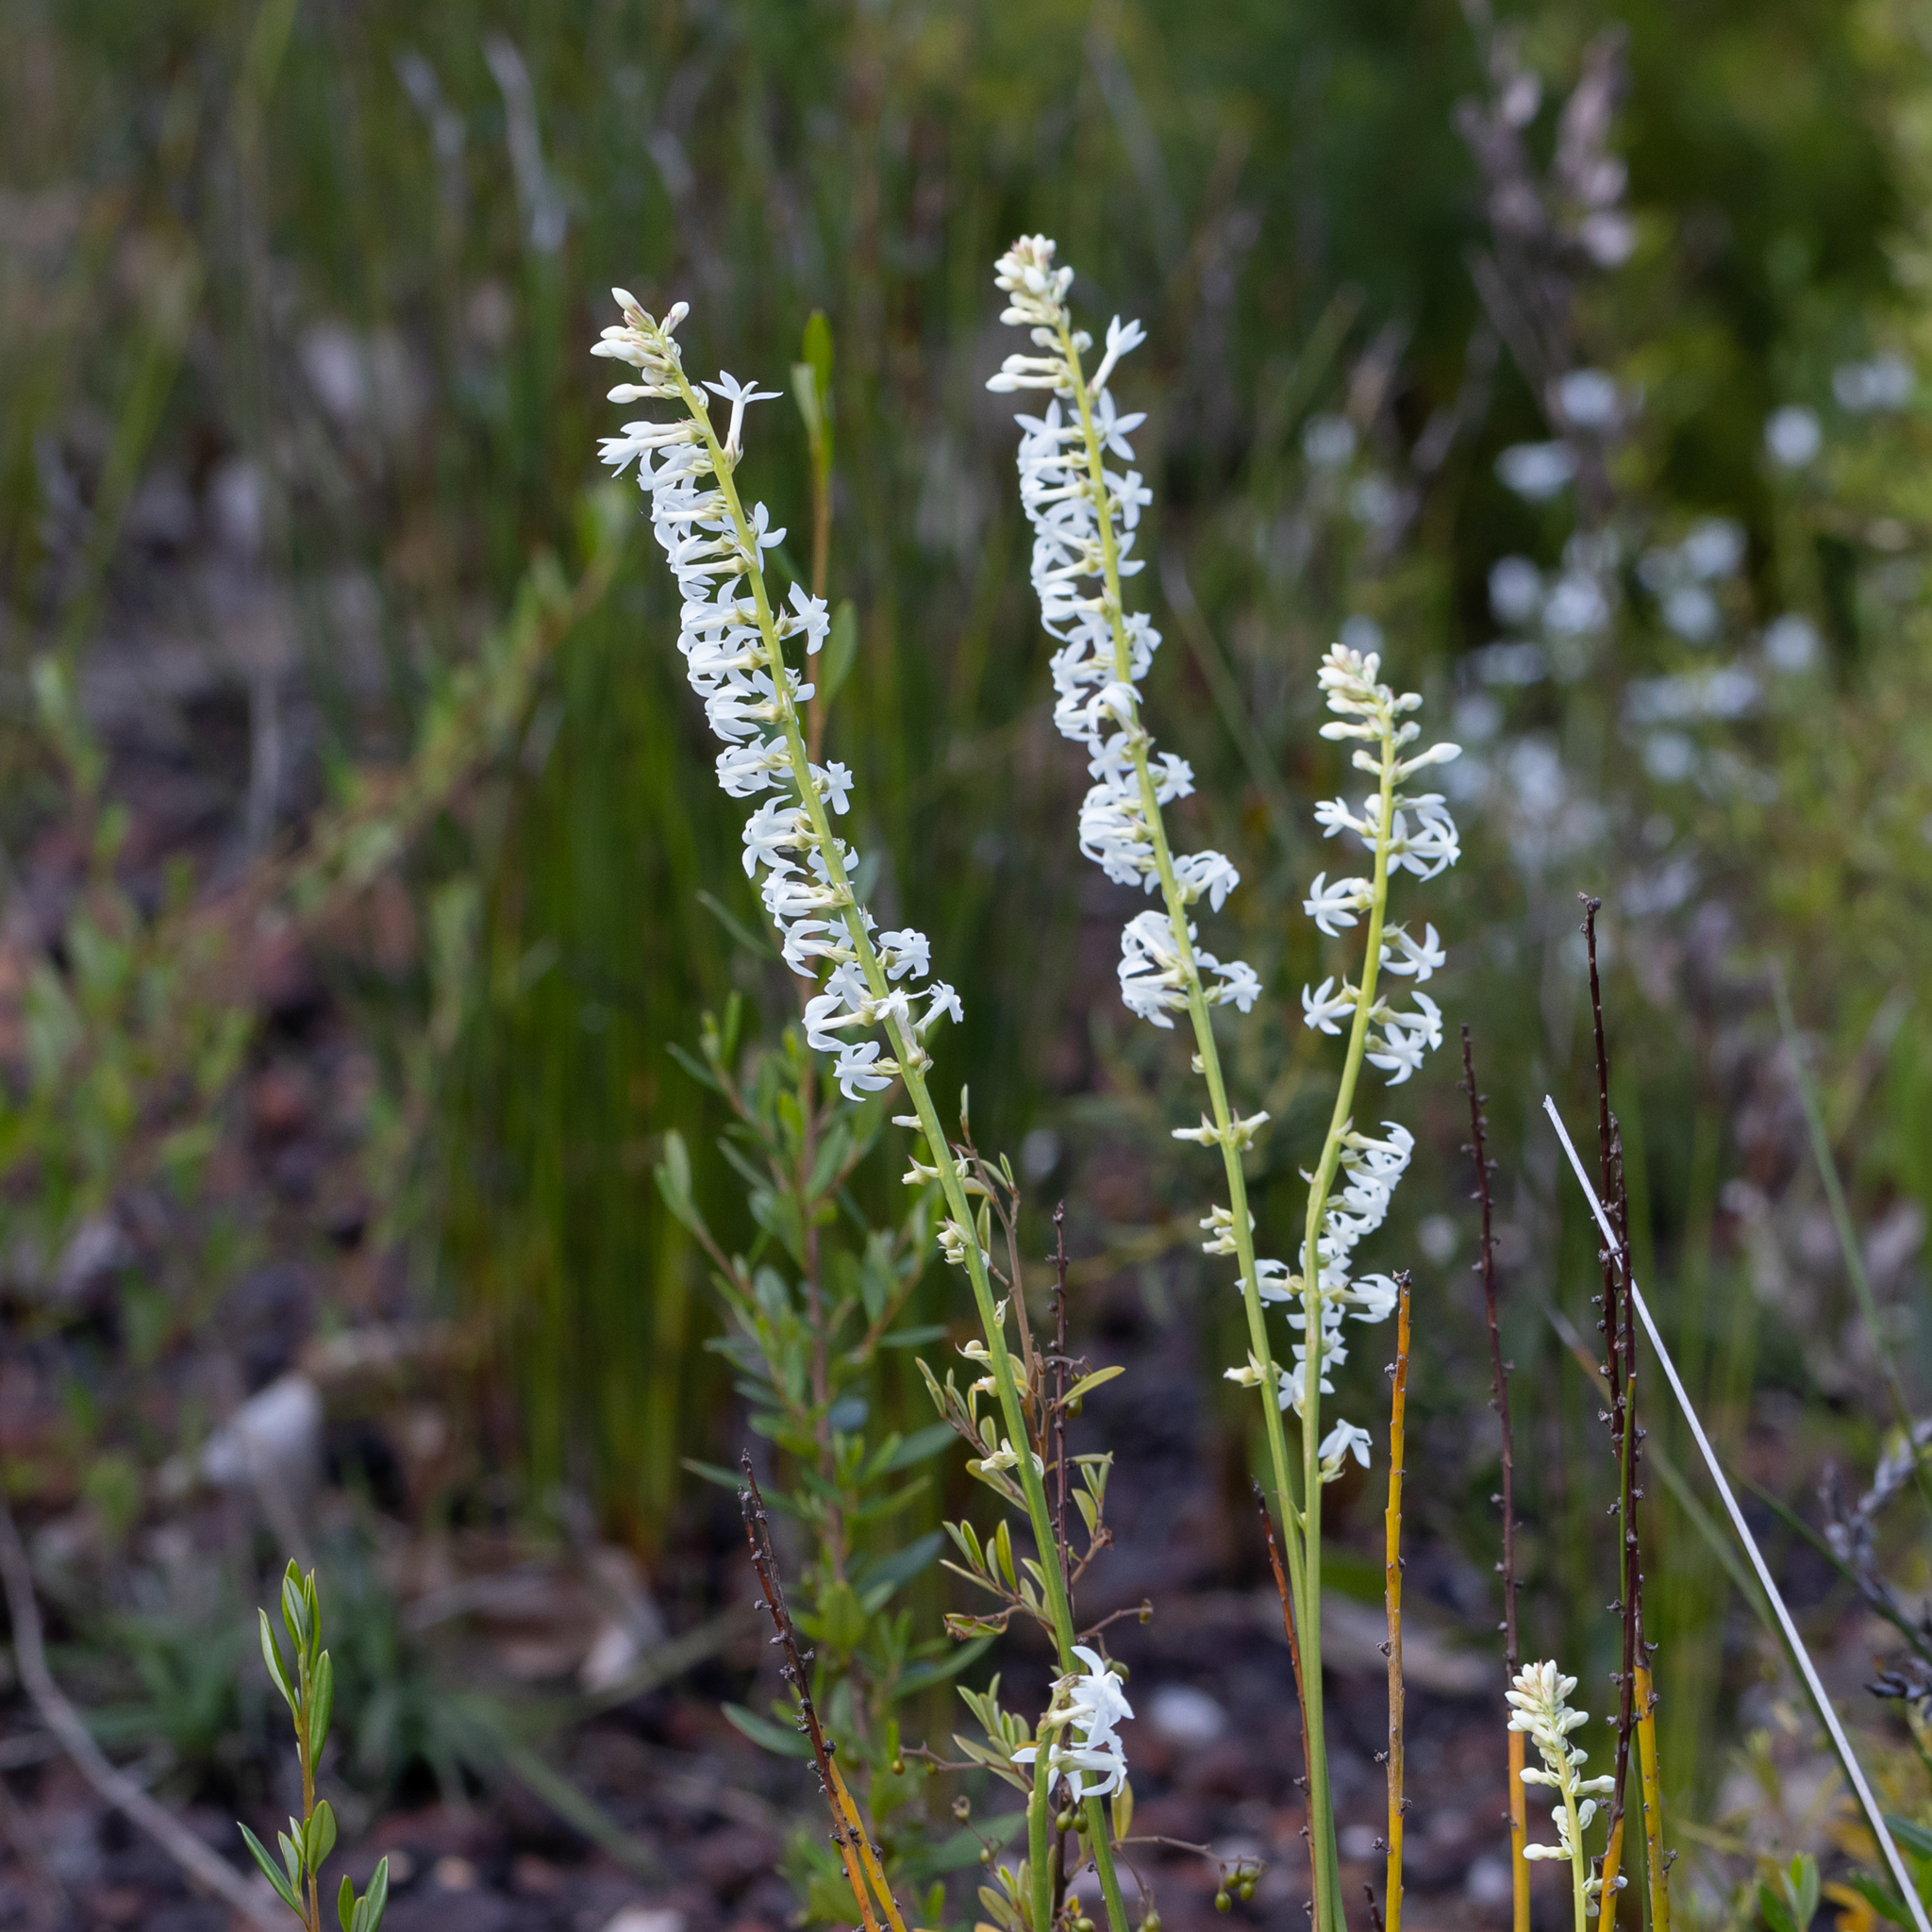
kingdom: Plantae
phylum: Tracheophyta
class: Magnoliopsida
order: Celastrales
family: Celastraceae
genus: Stackhousia
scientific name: Stackhousia monogyna
